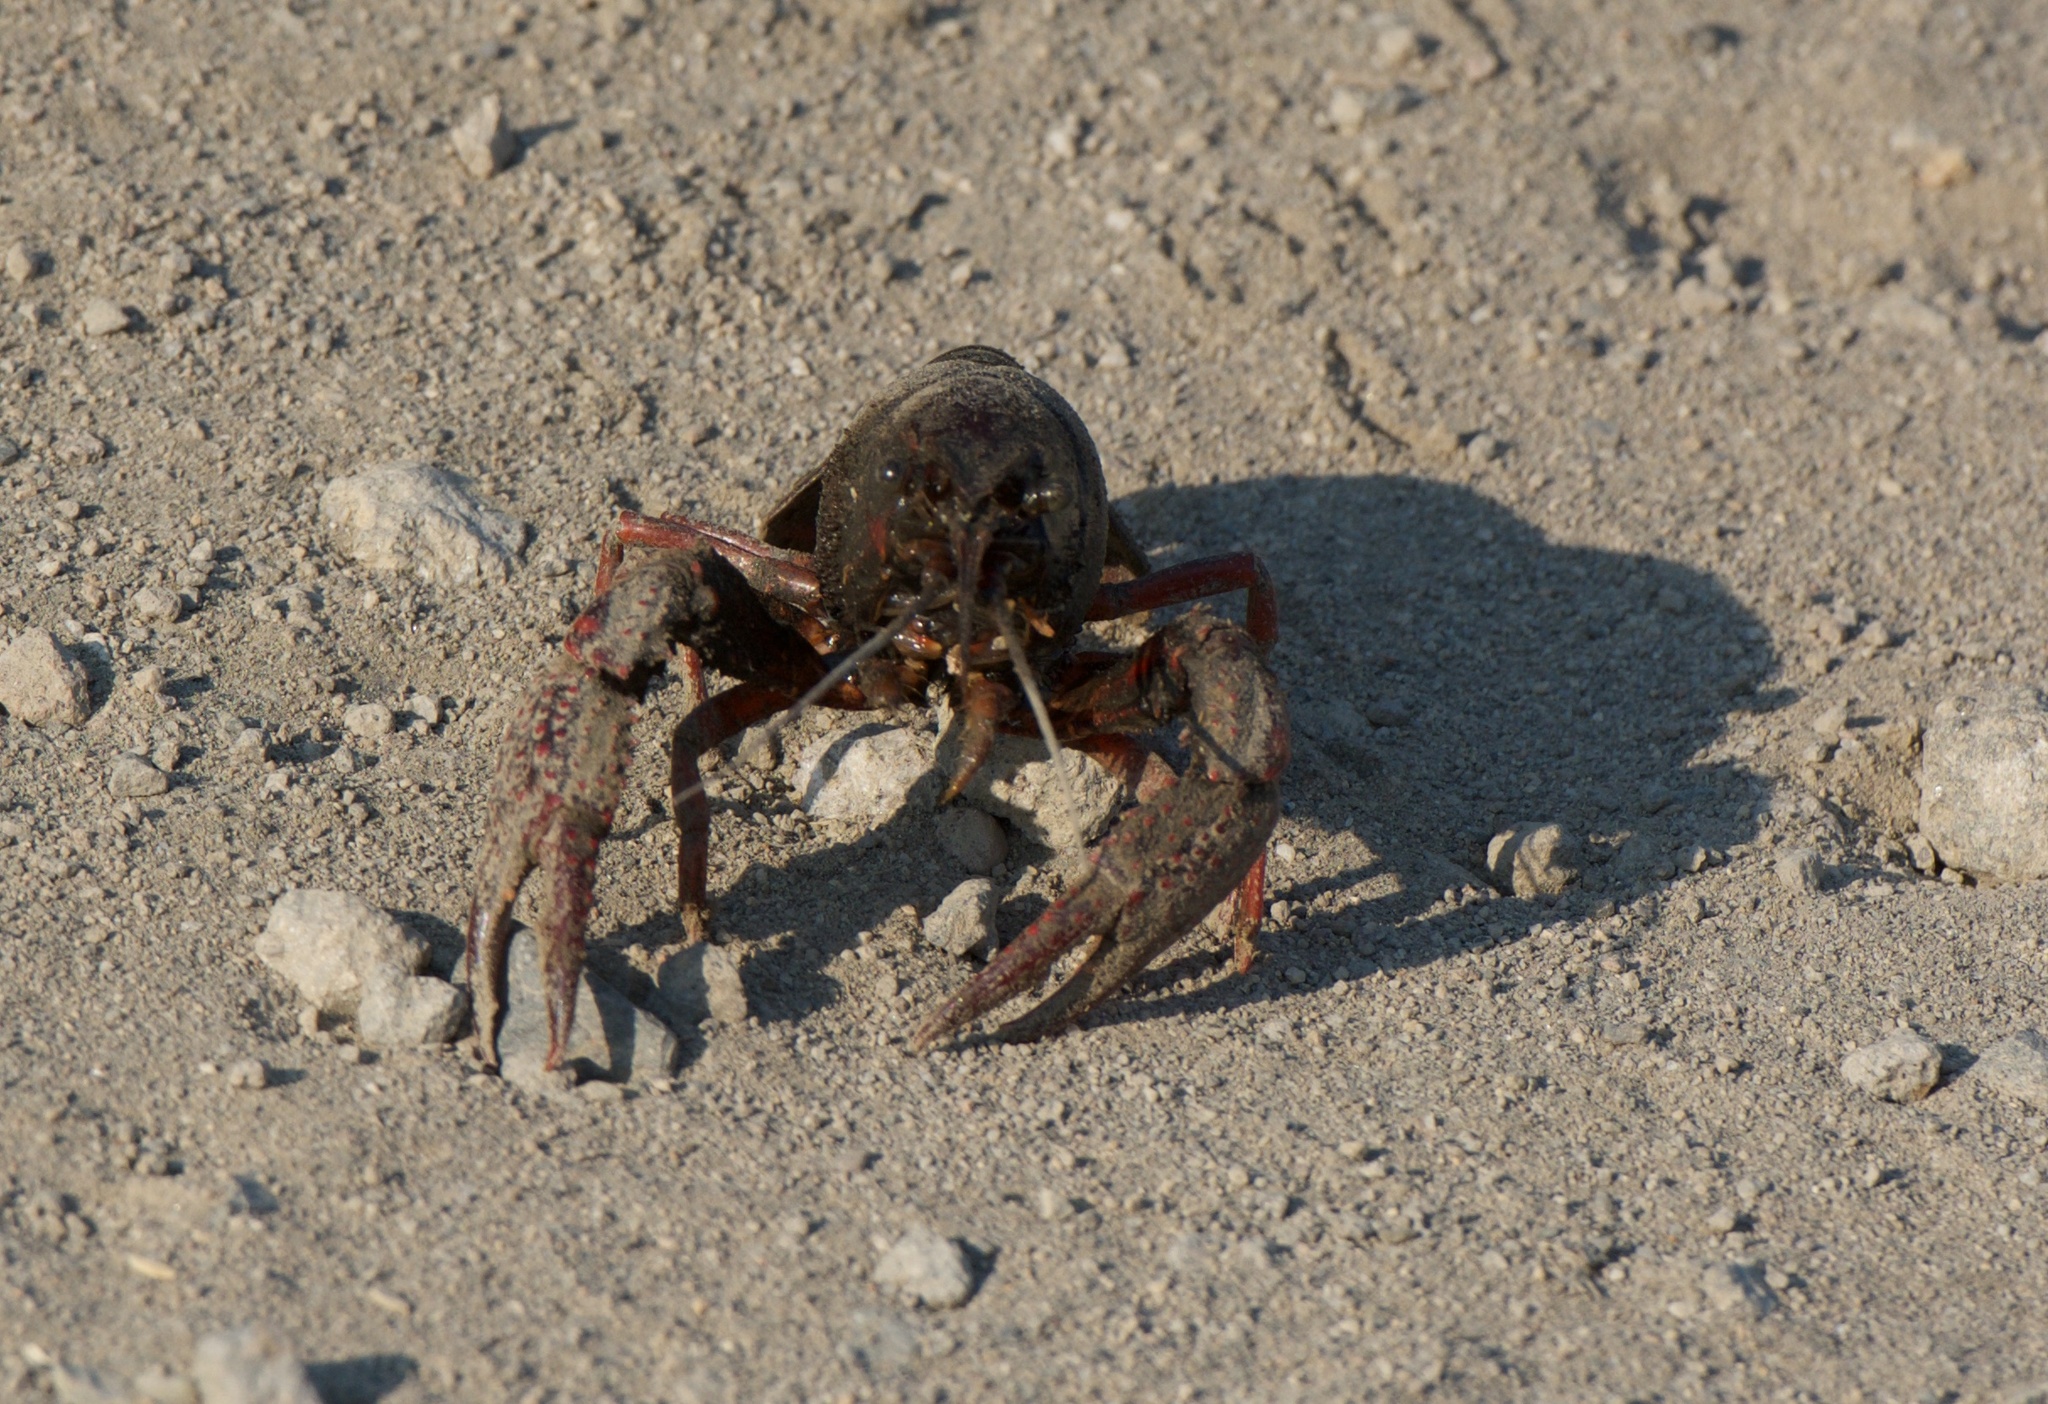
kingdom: Animalia
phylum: Arthropoda
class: Malacostraca
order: Decapoda
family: Cambaridae
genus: Procambarus
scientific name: Procambarus clarkii
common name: Red swamp crayfish
